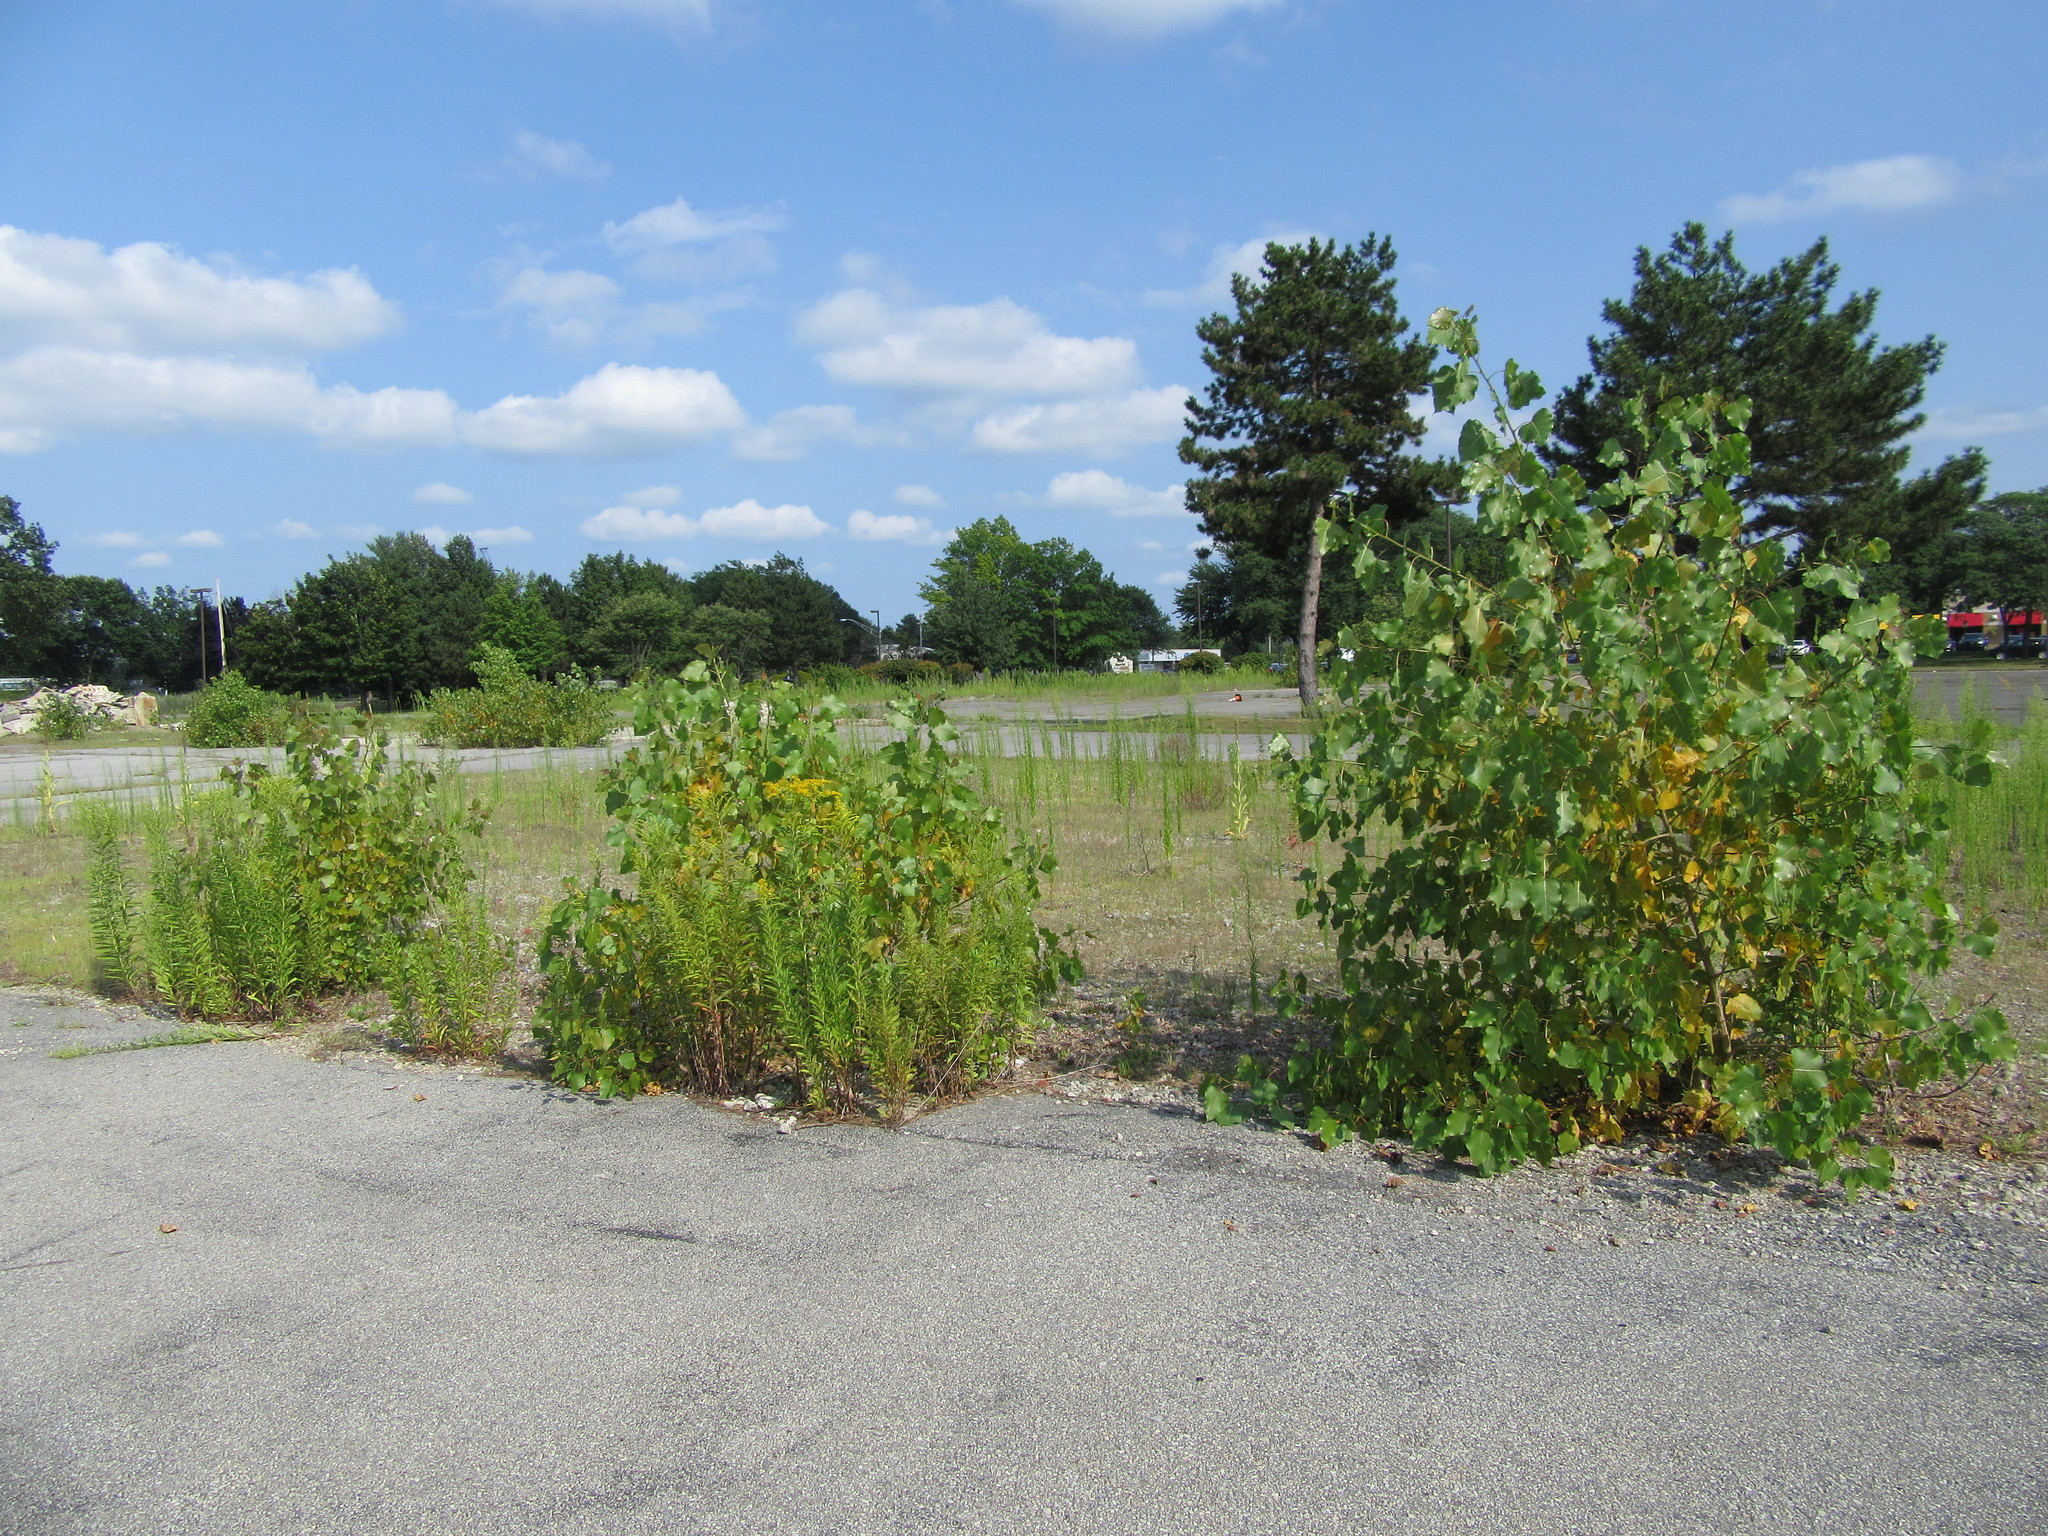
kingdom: Plantae
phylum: Tracheophyta
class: Magnoliopsida
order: Rosales
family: Rosaceae
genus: Pyrus
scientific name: Pyrus calleryana
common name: Callery pear
